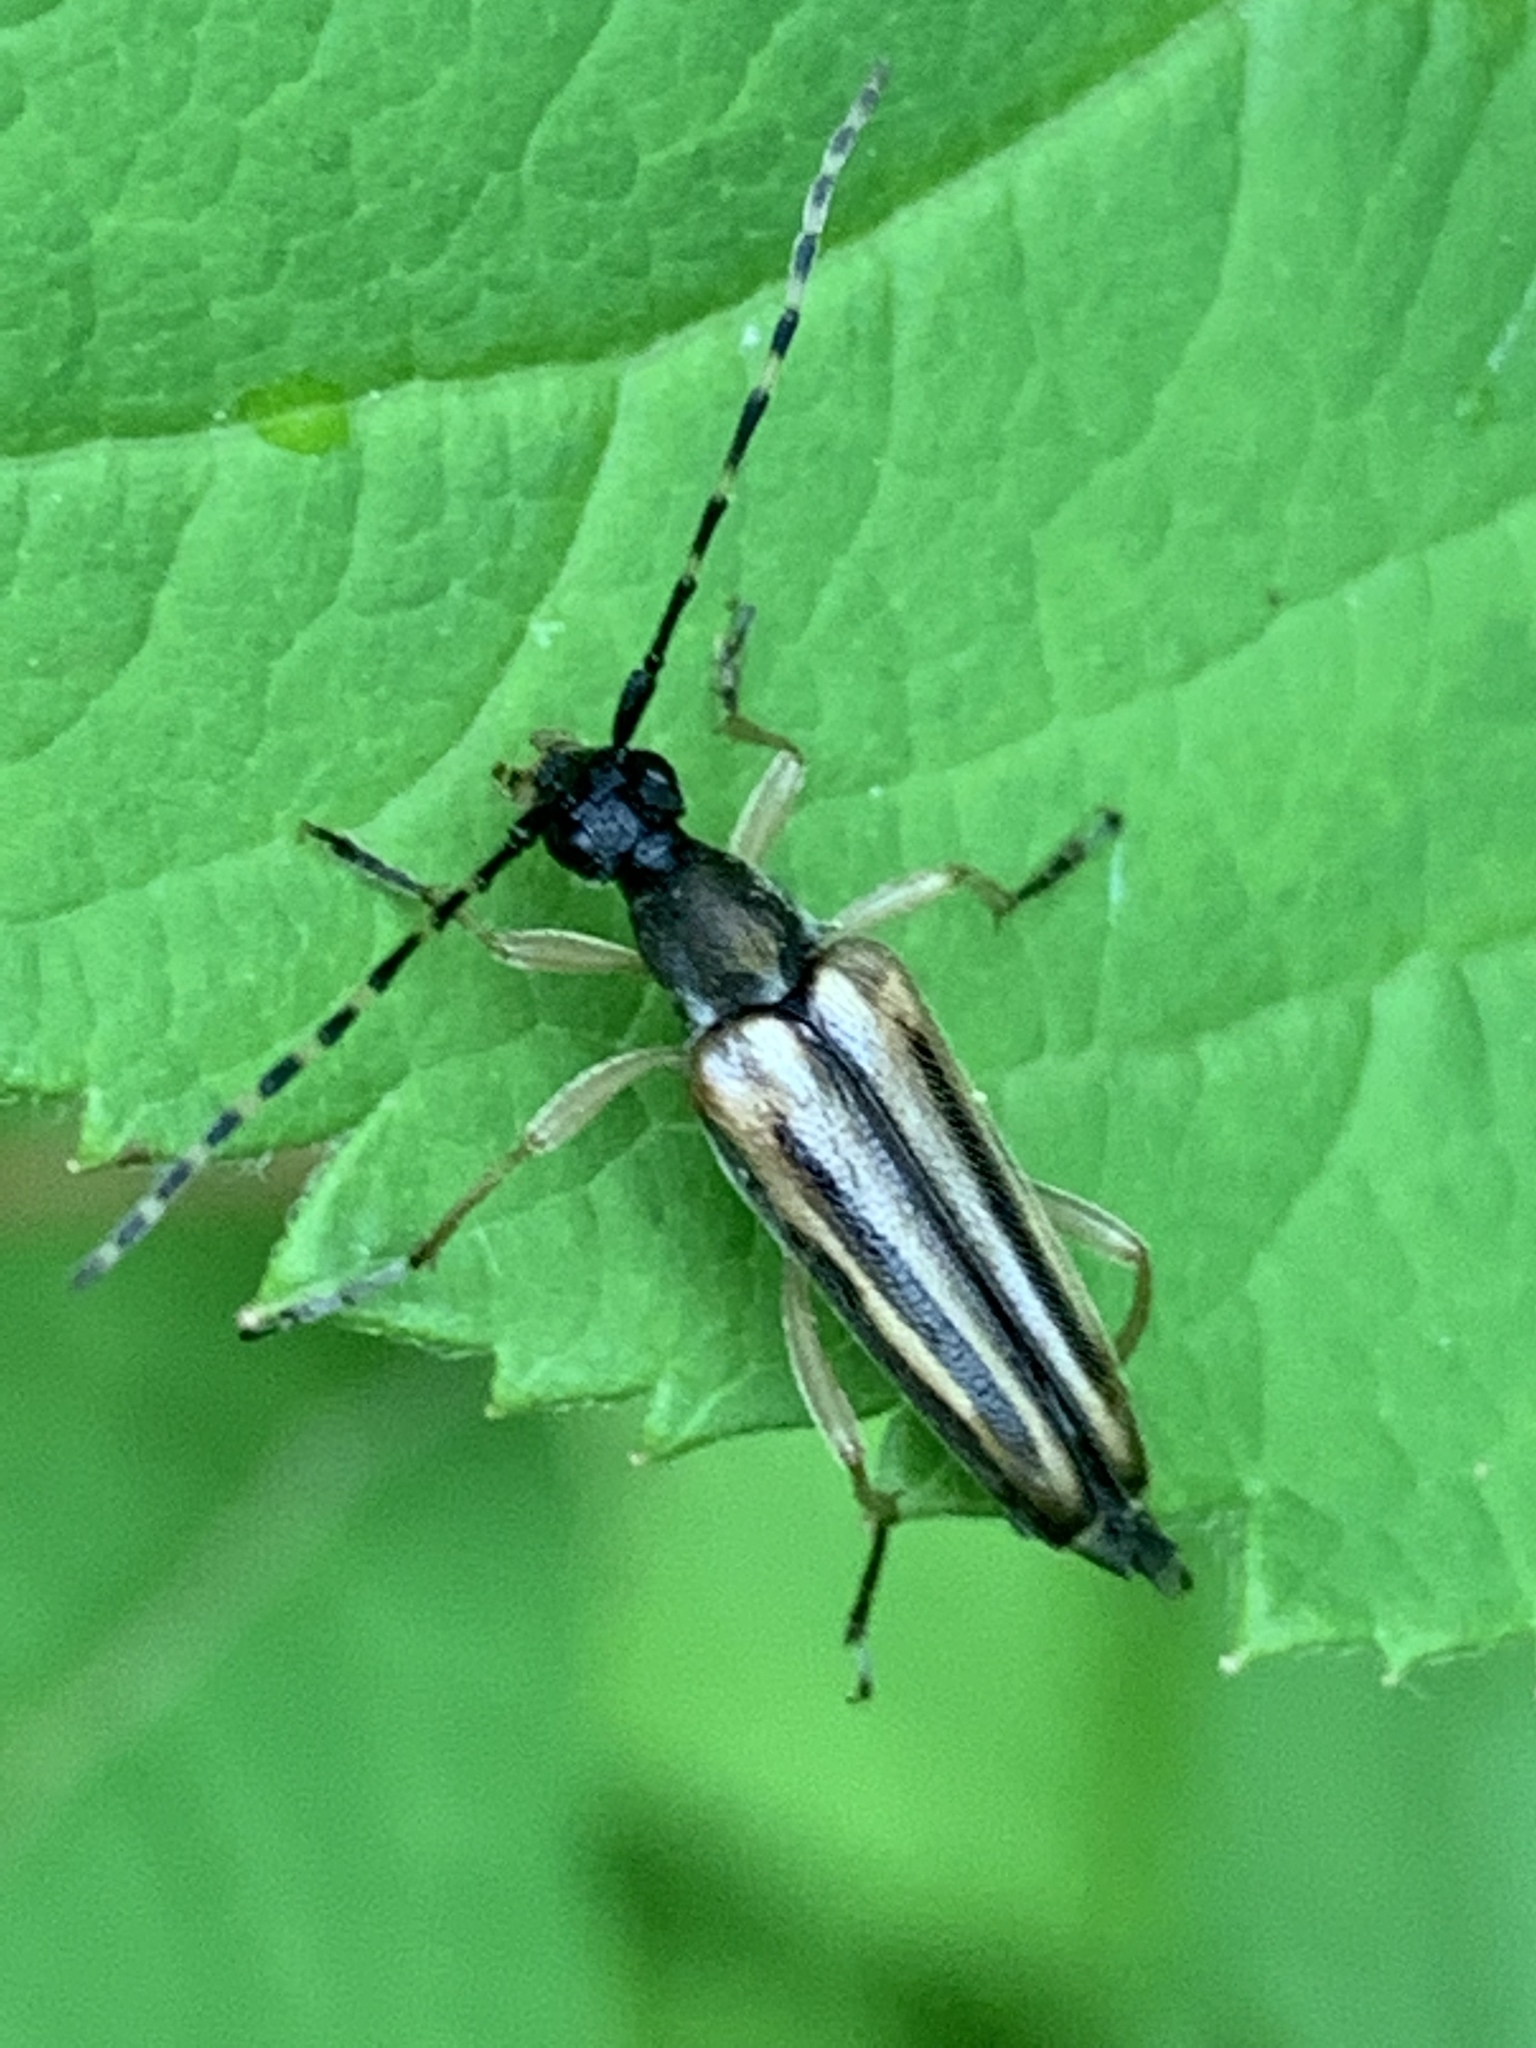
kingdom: Animalia
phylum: Arthropoda
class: Insecta
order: Coleoptera
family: Cerambycidae
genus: Analeptura
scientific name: Analeptura lineola
